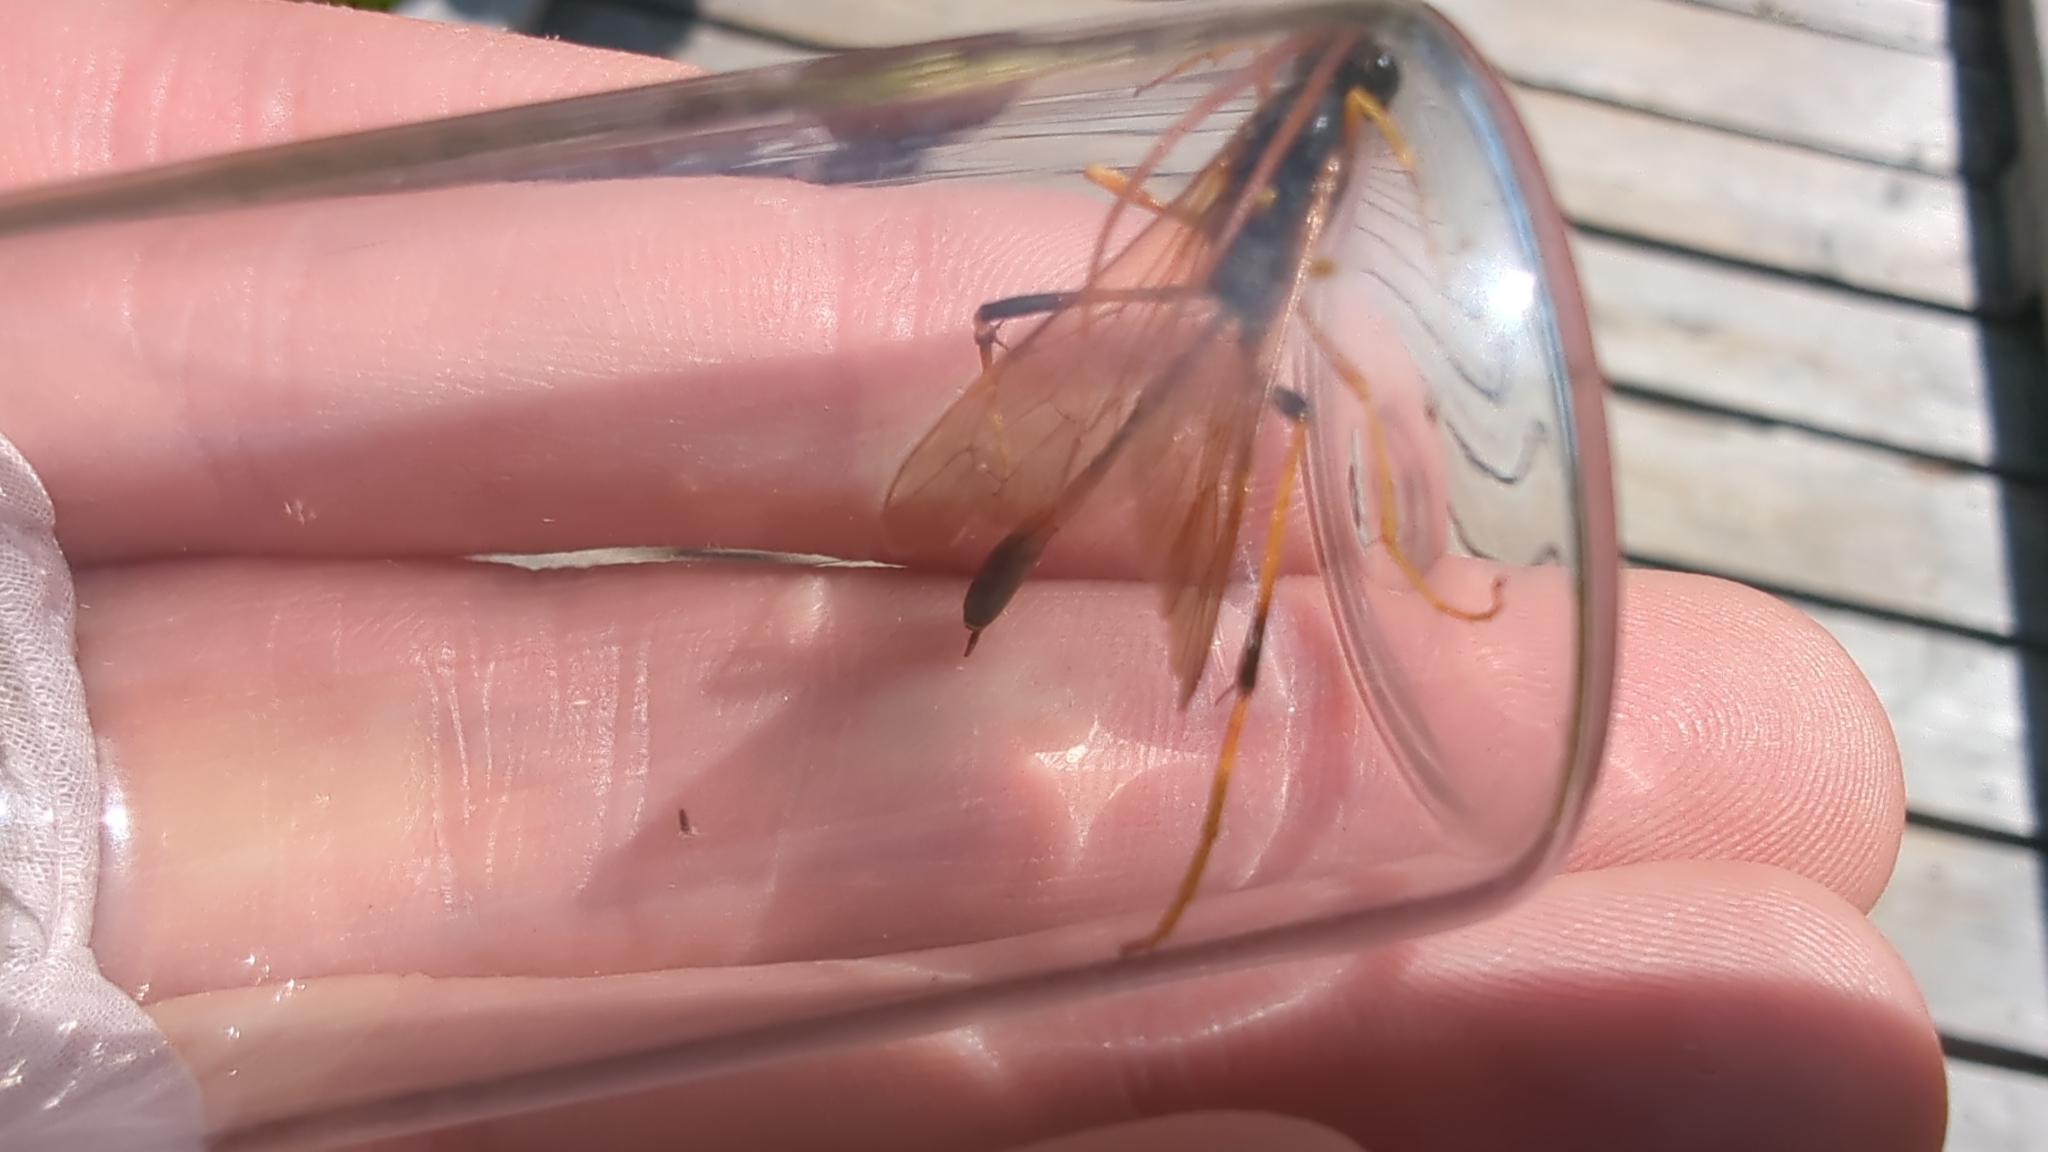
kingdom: Animalia
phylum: Arthropoda
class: Insecta
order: Hymenoptera
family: Ichneumonidae
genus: Therion
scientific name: Therion circumflexum
